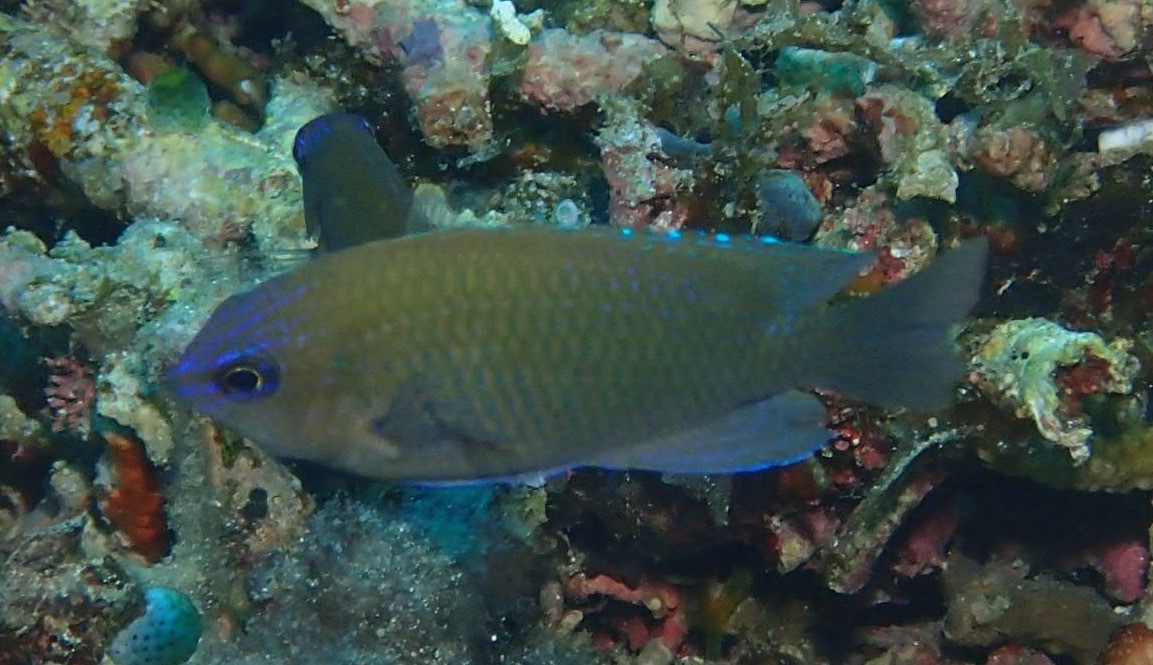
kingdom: Animalia
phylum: Chordata
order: Perciformes
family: Pomacentridae
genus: Pomacentrus
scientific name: Pomacentrus cuneatus
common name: Wedgespot damsel
